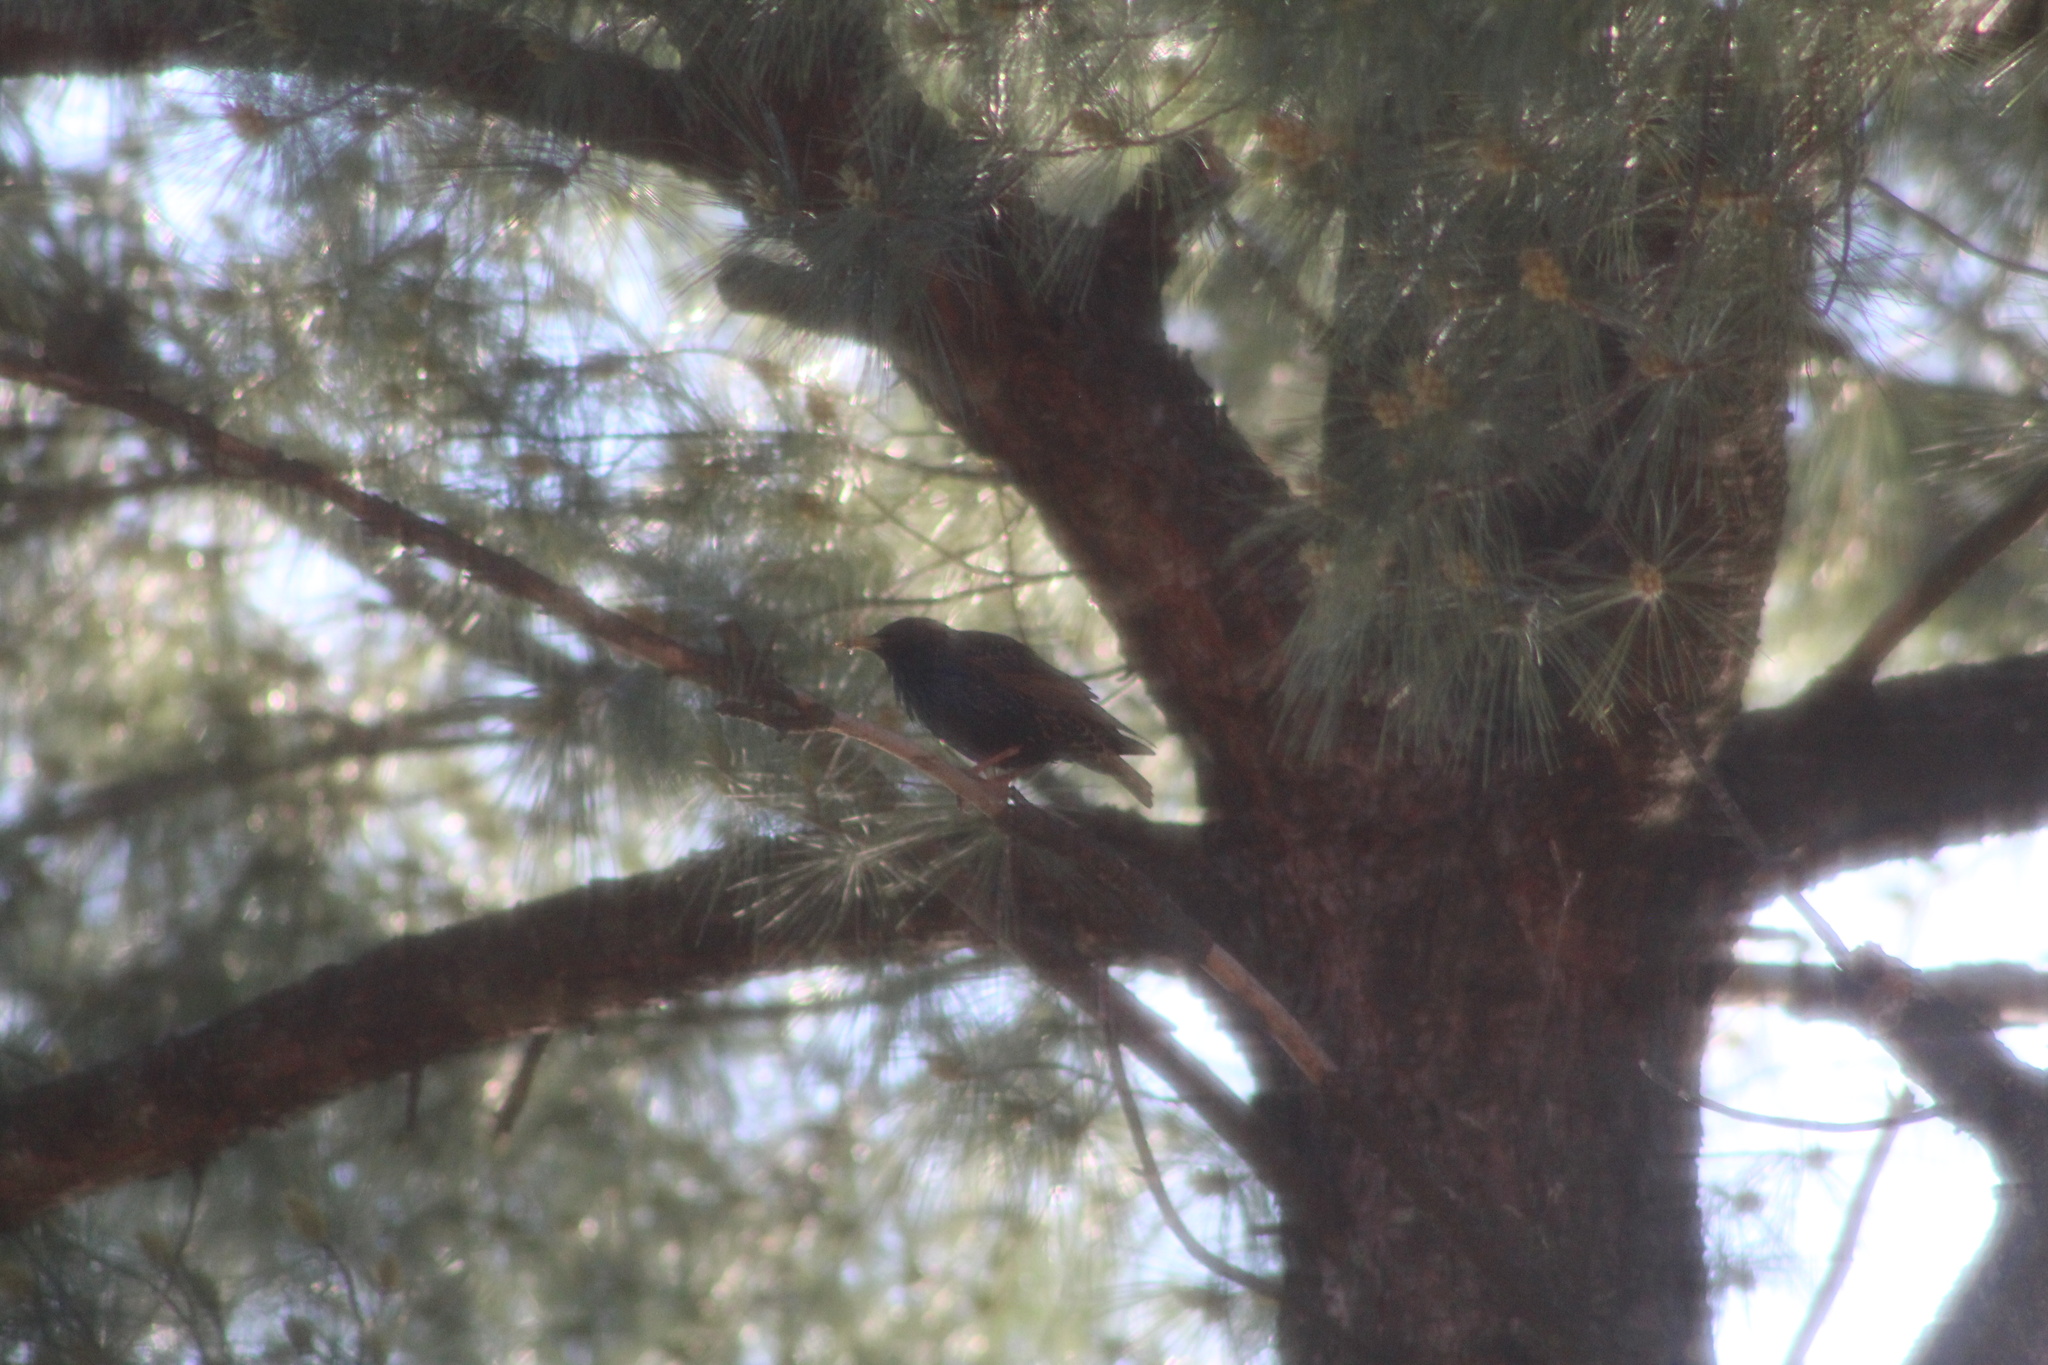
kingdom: Animalia
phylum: Chordata
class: Aves
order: Passeriformes
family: Sturnidae
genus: Sturnus
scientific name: Sturnus vulgaris
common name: Common starling
